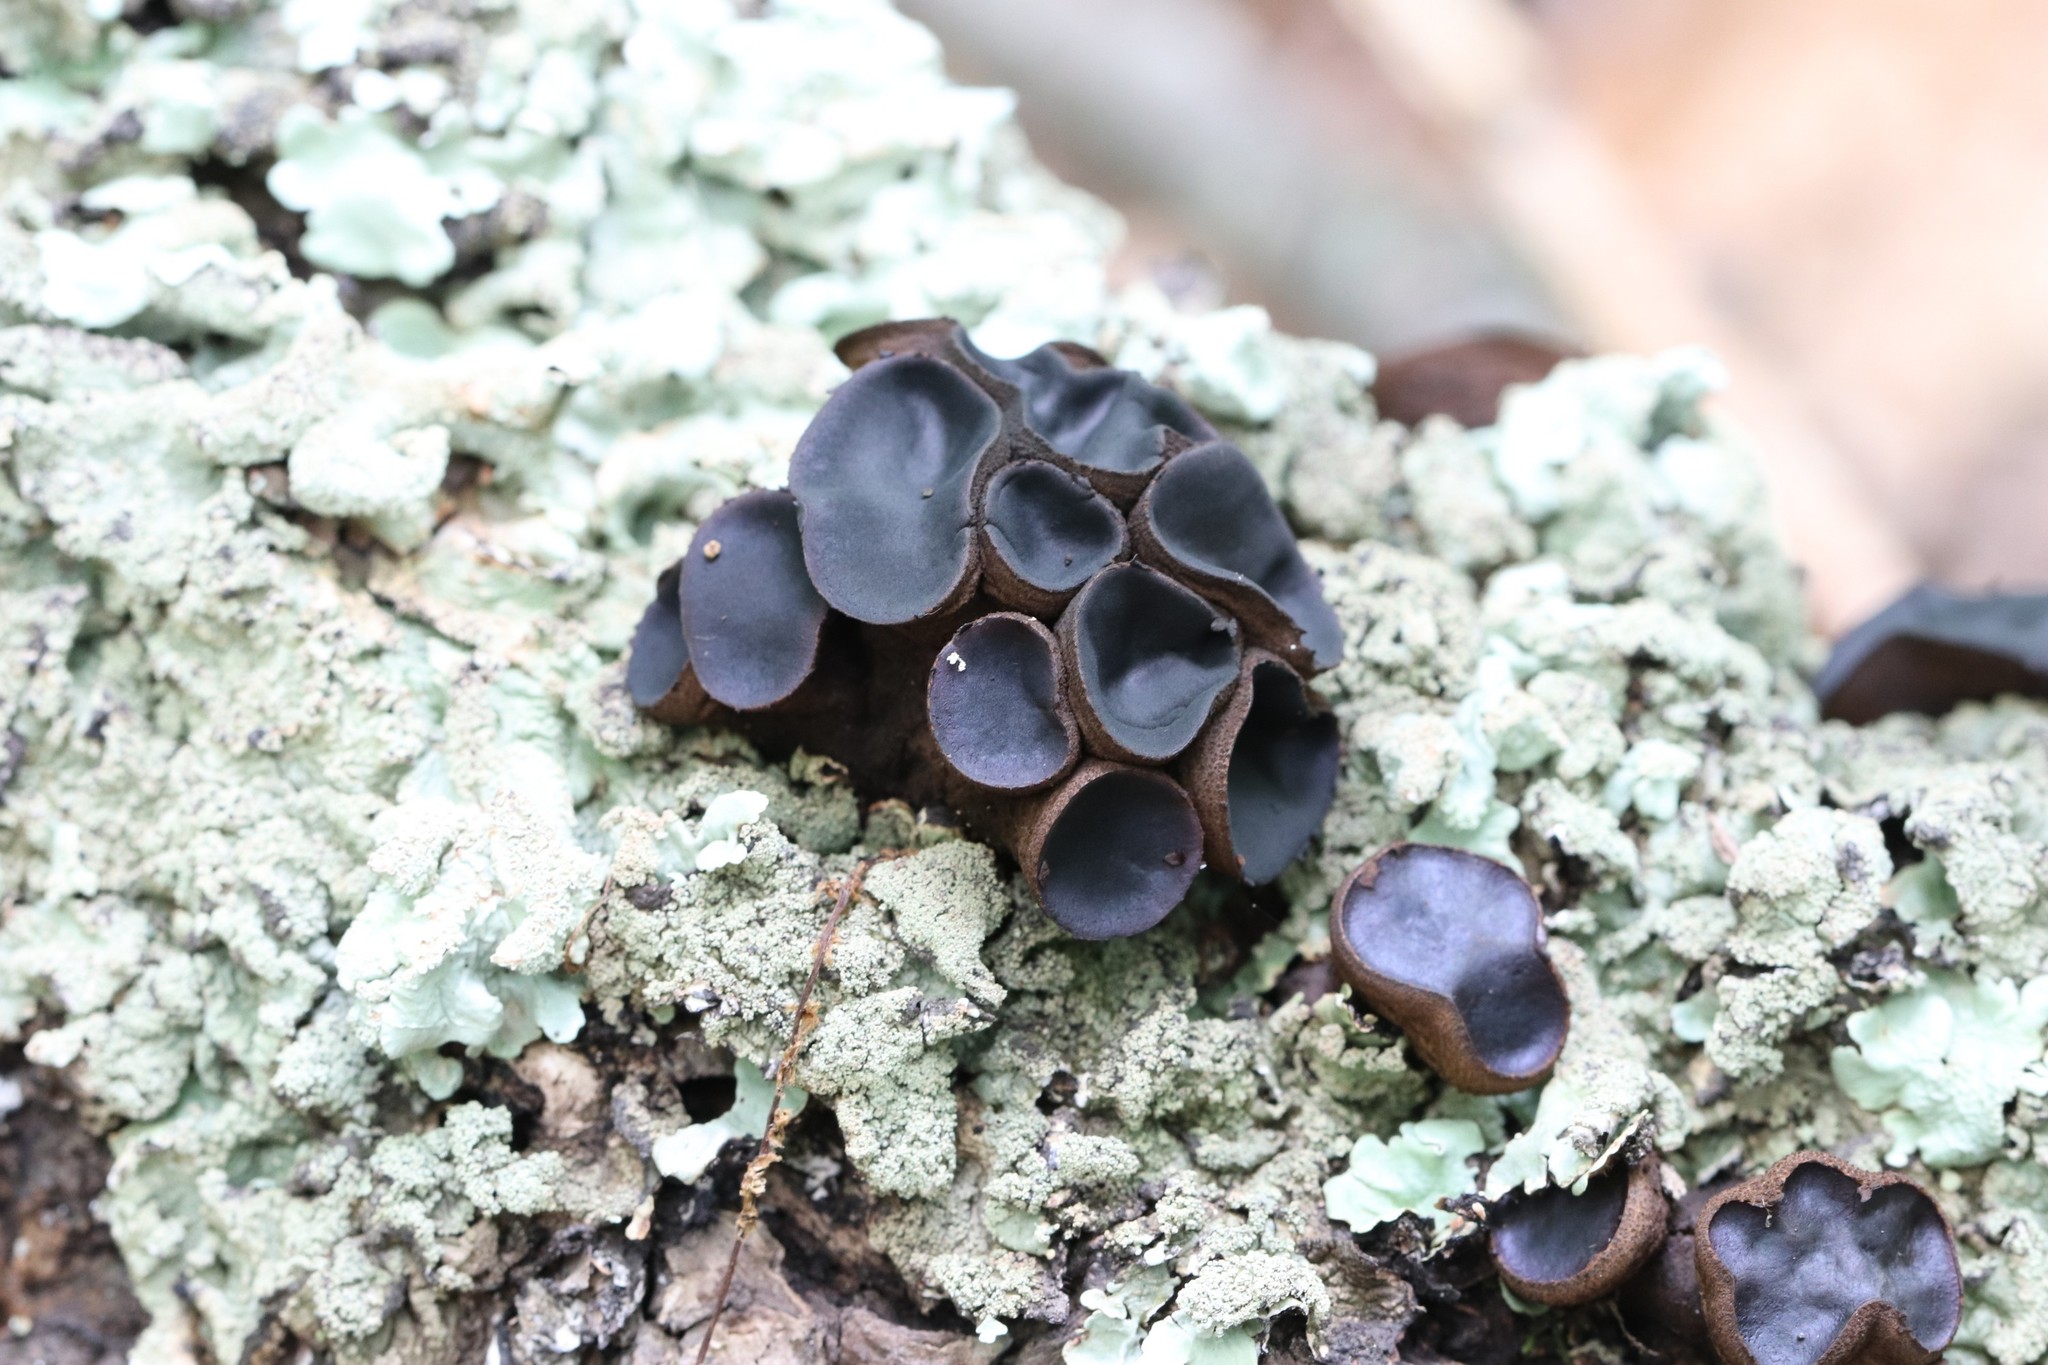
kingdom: Fungi
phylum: Ascomycota
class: Leotiomycetes
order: Phacidiales
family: Phacidiaceae
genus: Bulgaria
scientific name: Bulgaria inquinans
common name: Black bulgar
